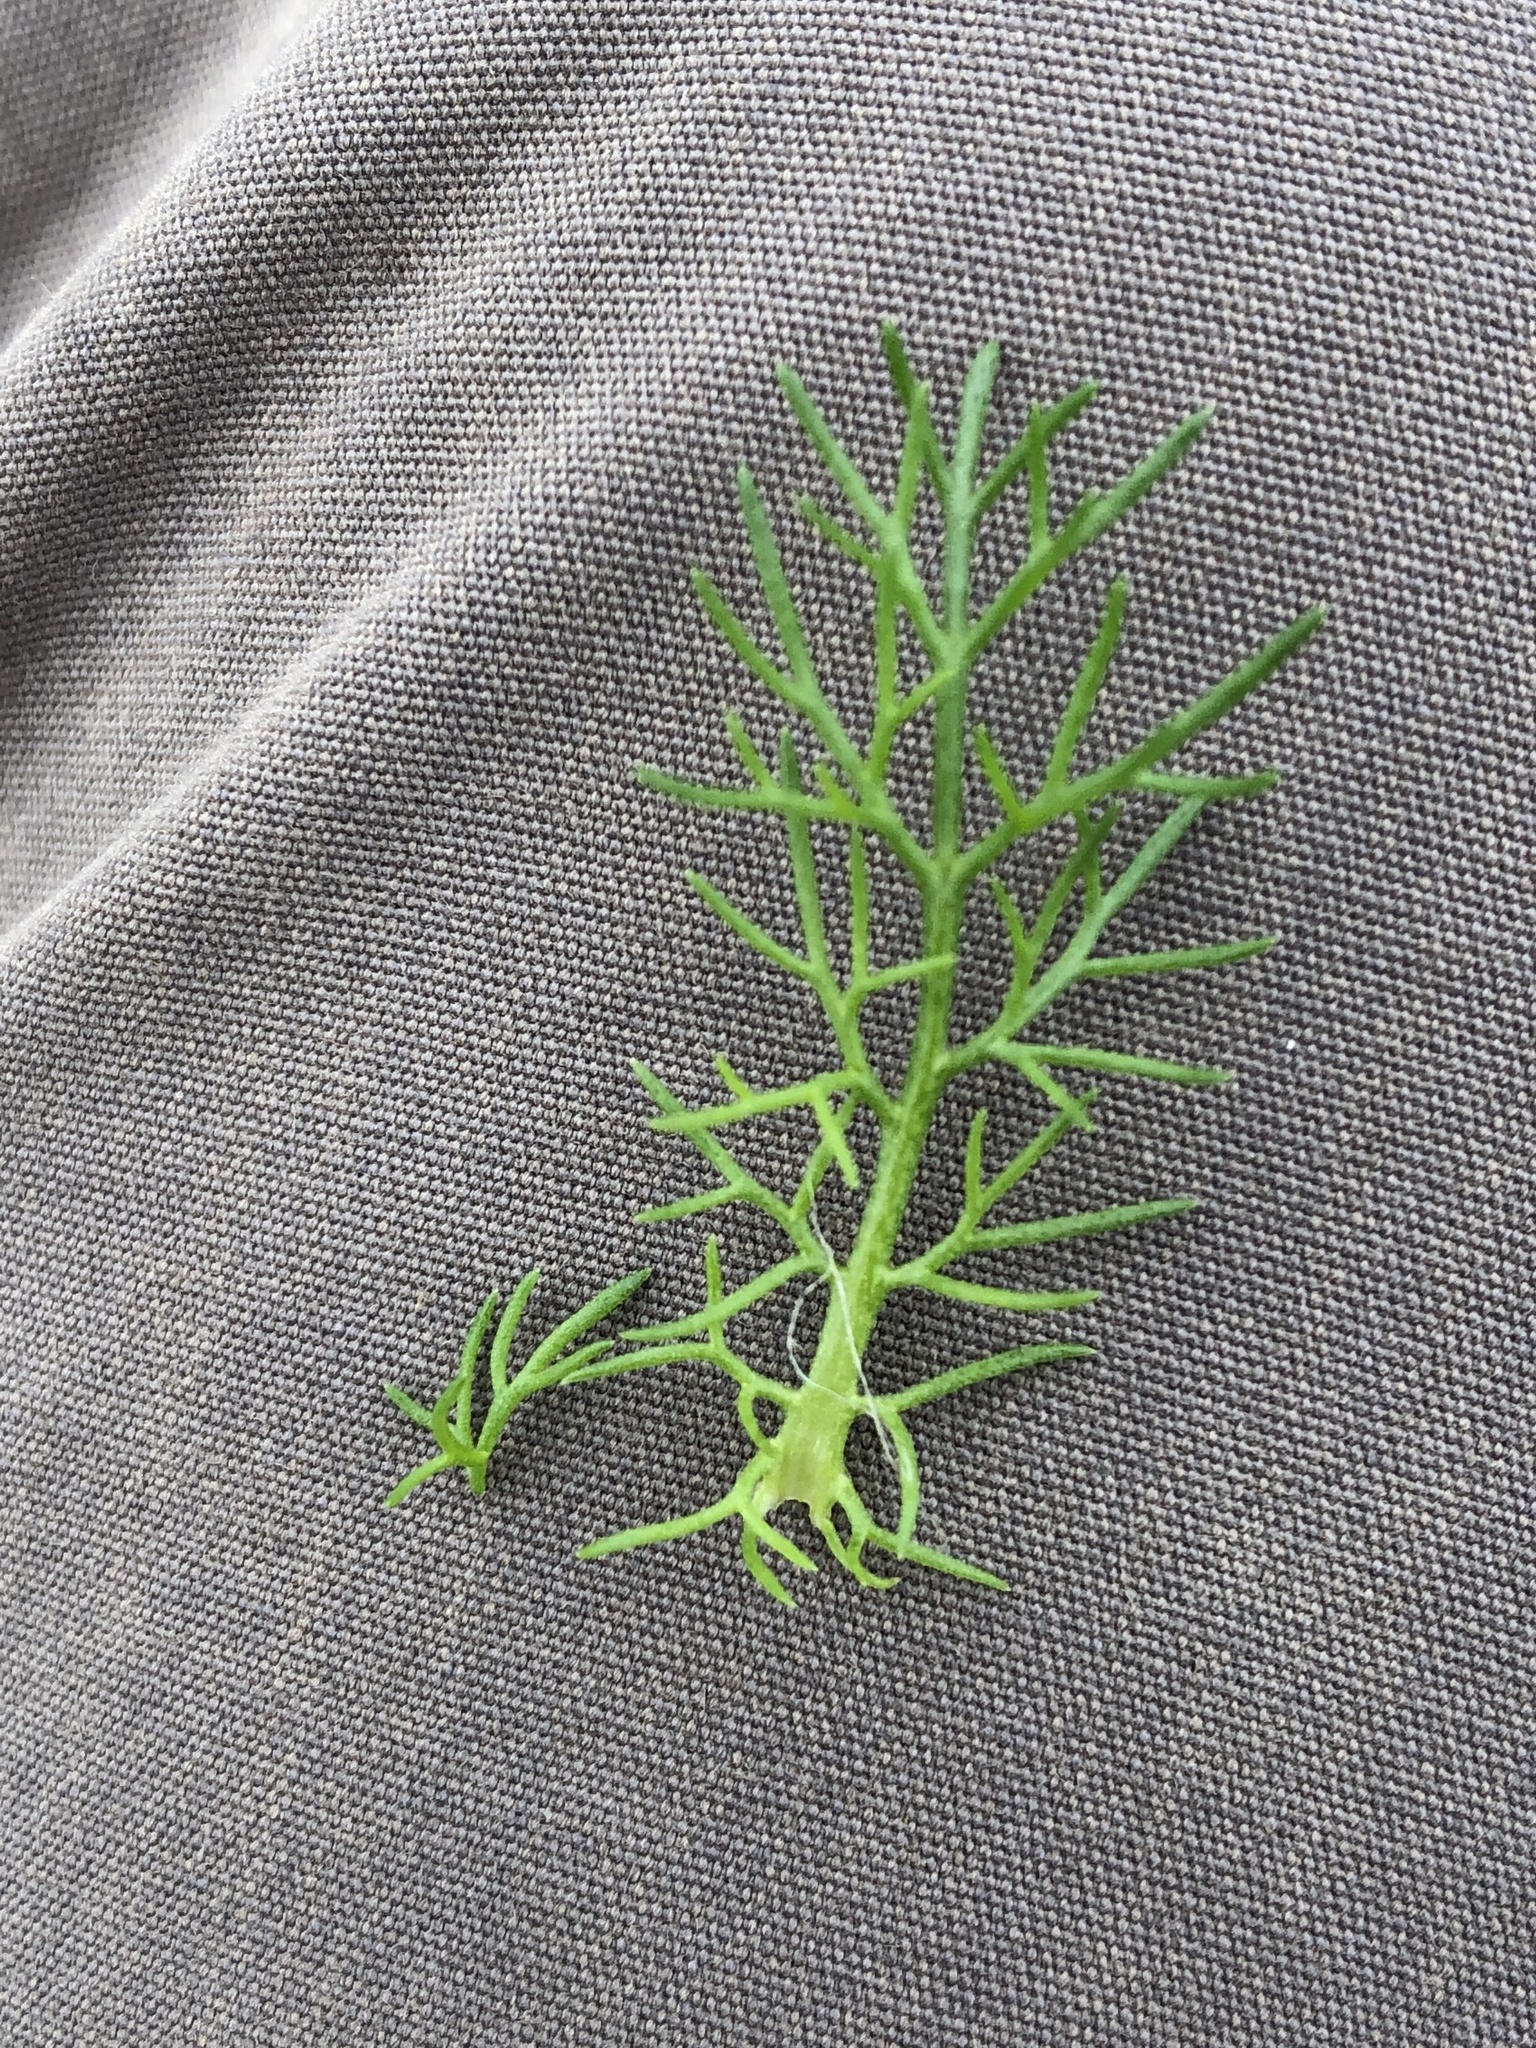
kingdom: Plantae
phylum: Tracheophyta
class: Magnoliopsida
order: Asterales
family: Asteraceae
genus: Tripleurospermum
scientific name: Tripleurospermum maritimum
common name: Sea mayweed
